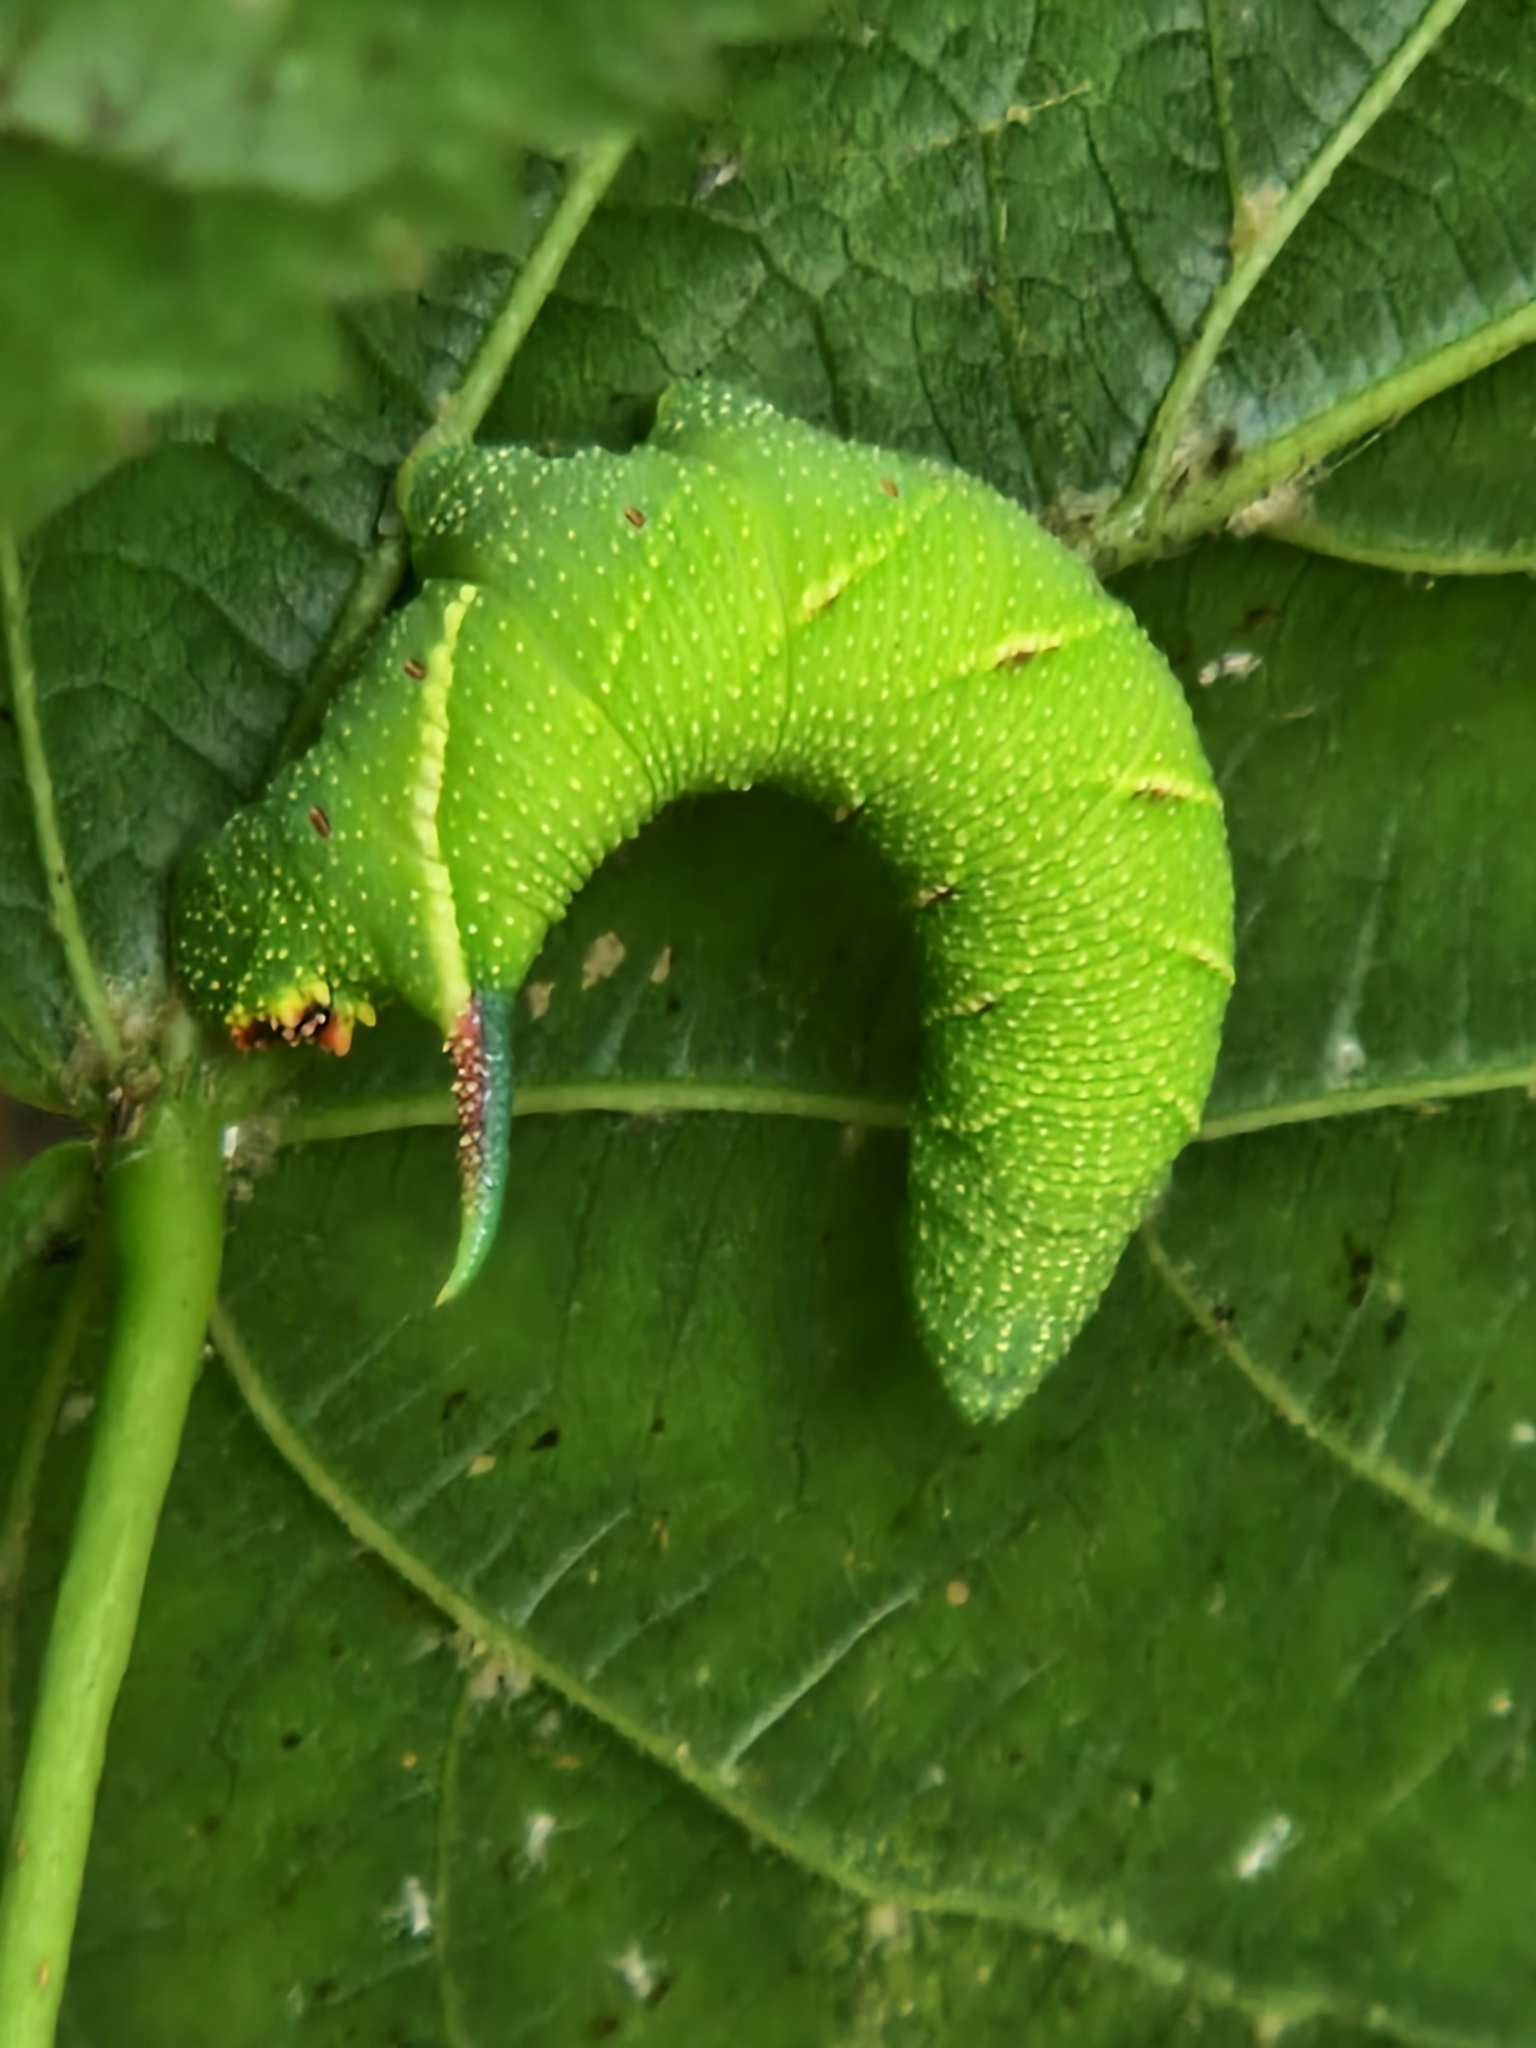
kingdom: Animalia
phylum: Arthropoda
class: Insecta
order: Lepidoptera
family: Sphingidae
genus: Mimas
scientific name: Mimas tiliae
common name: Lime hawk-moth
